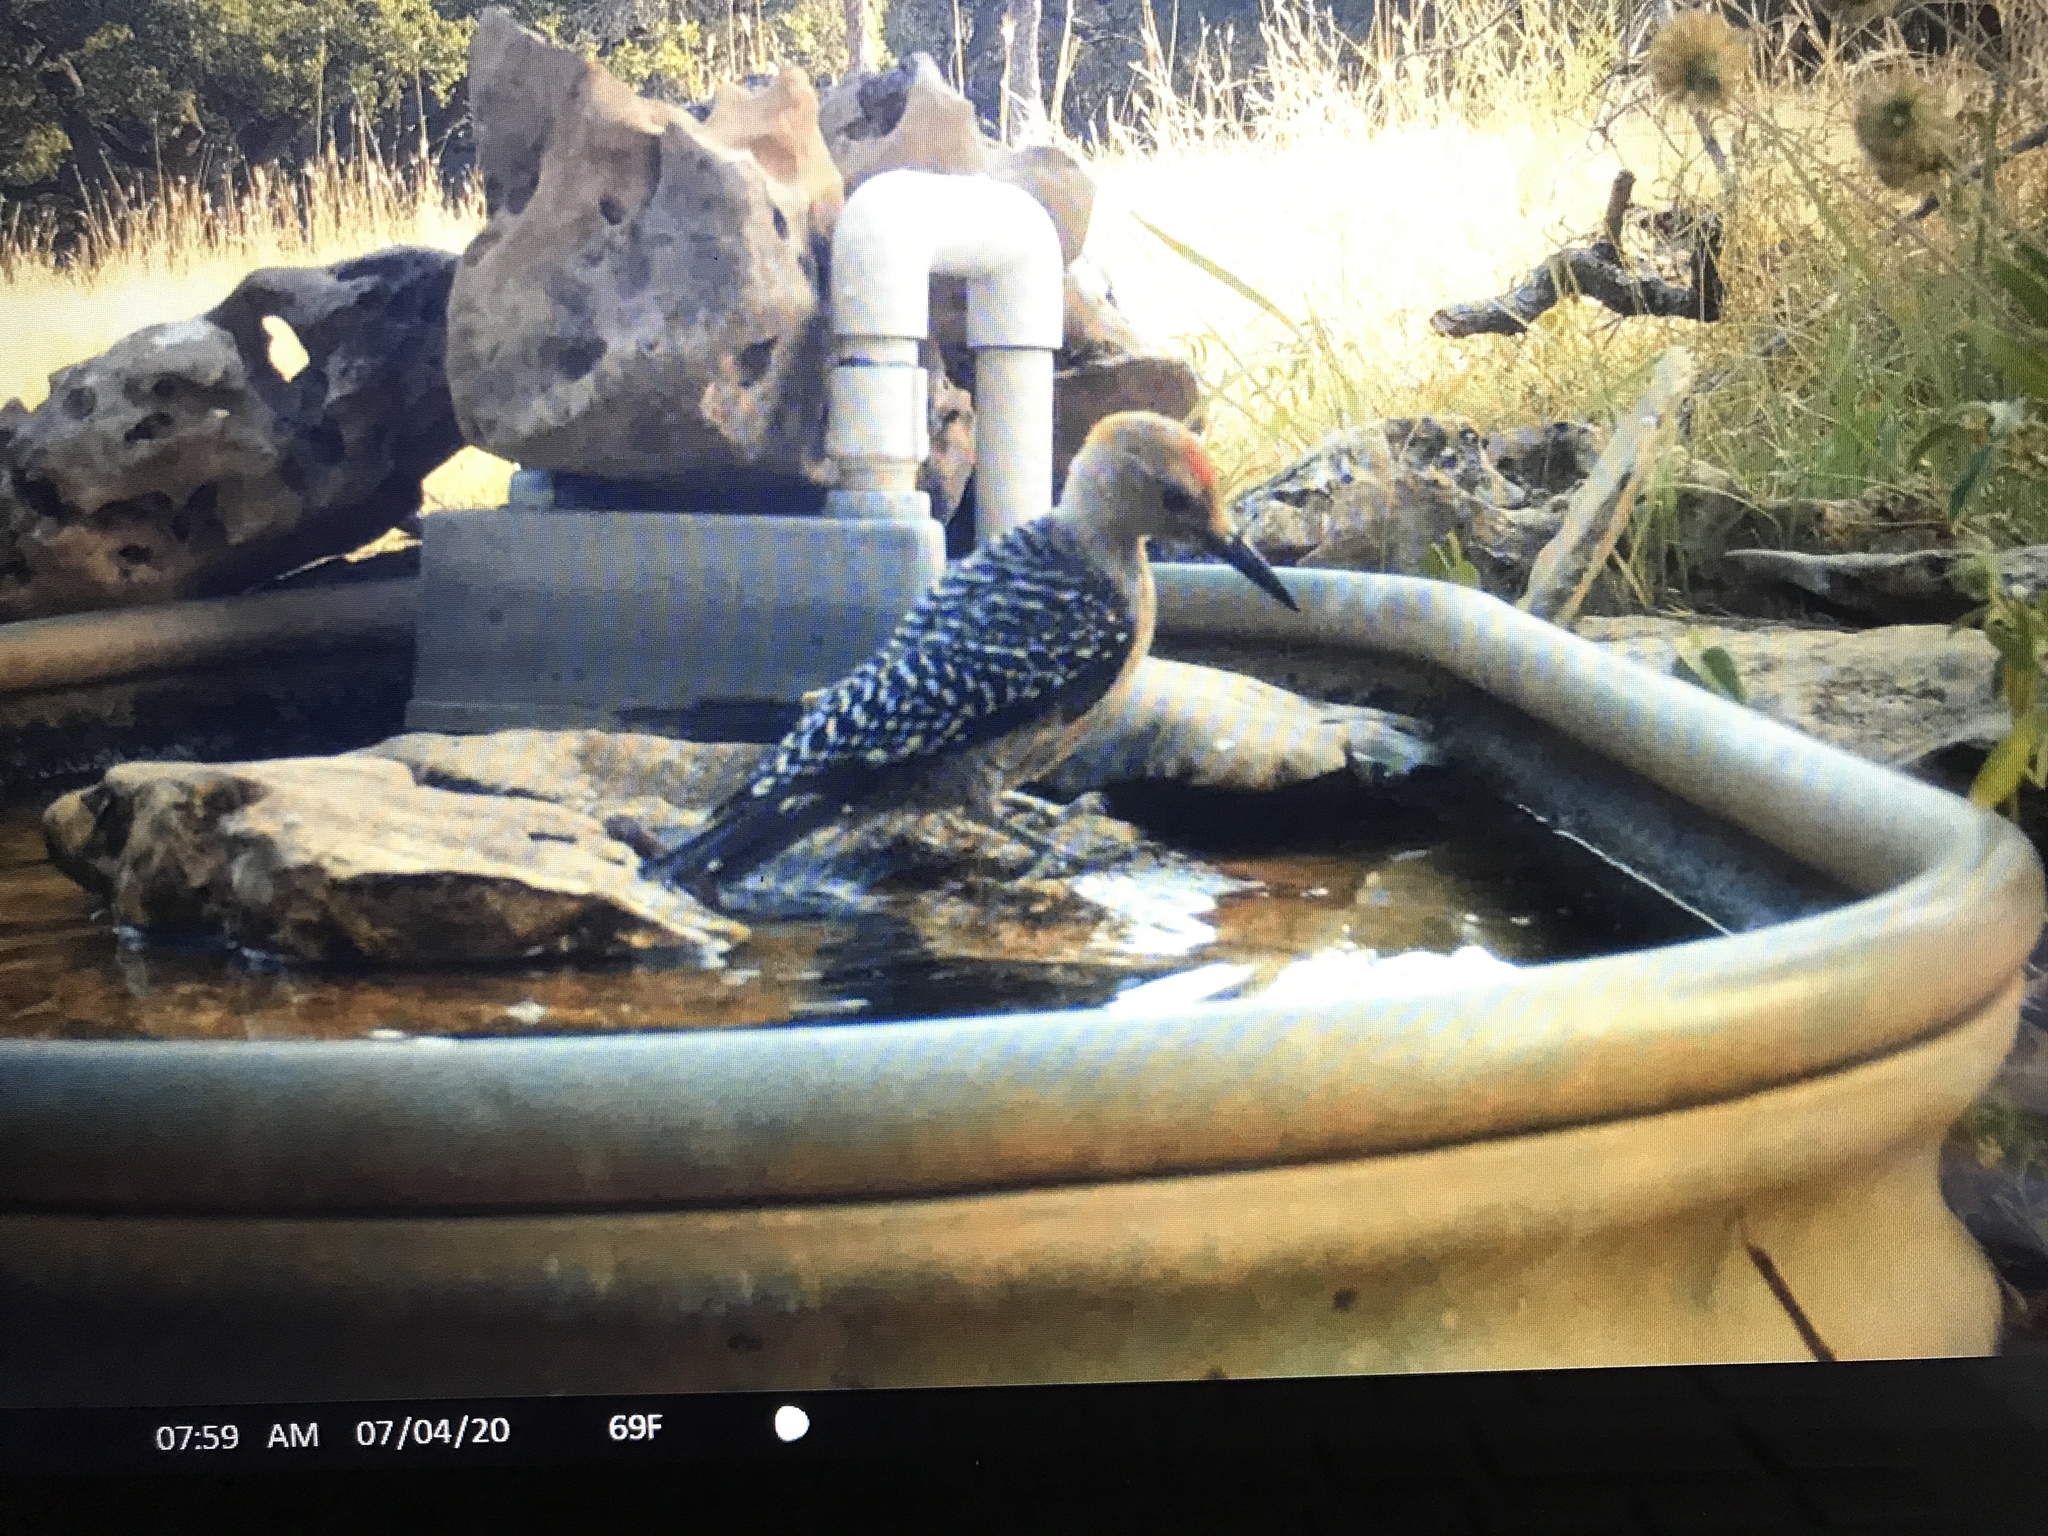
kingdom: Animalia
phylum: Chordata
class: Aves
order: Piciformes
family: Picidae
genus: Melanerpes
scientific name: Melanerpes aurifrons
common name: Golden-fronted woodpecker
